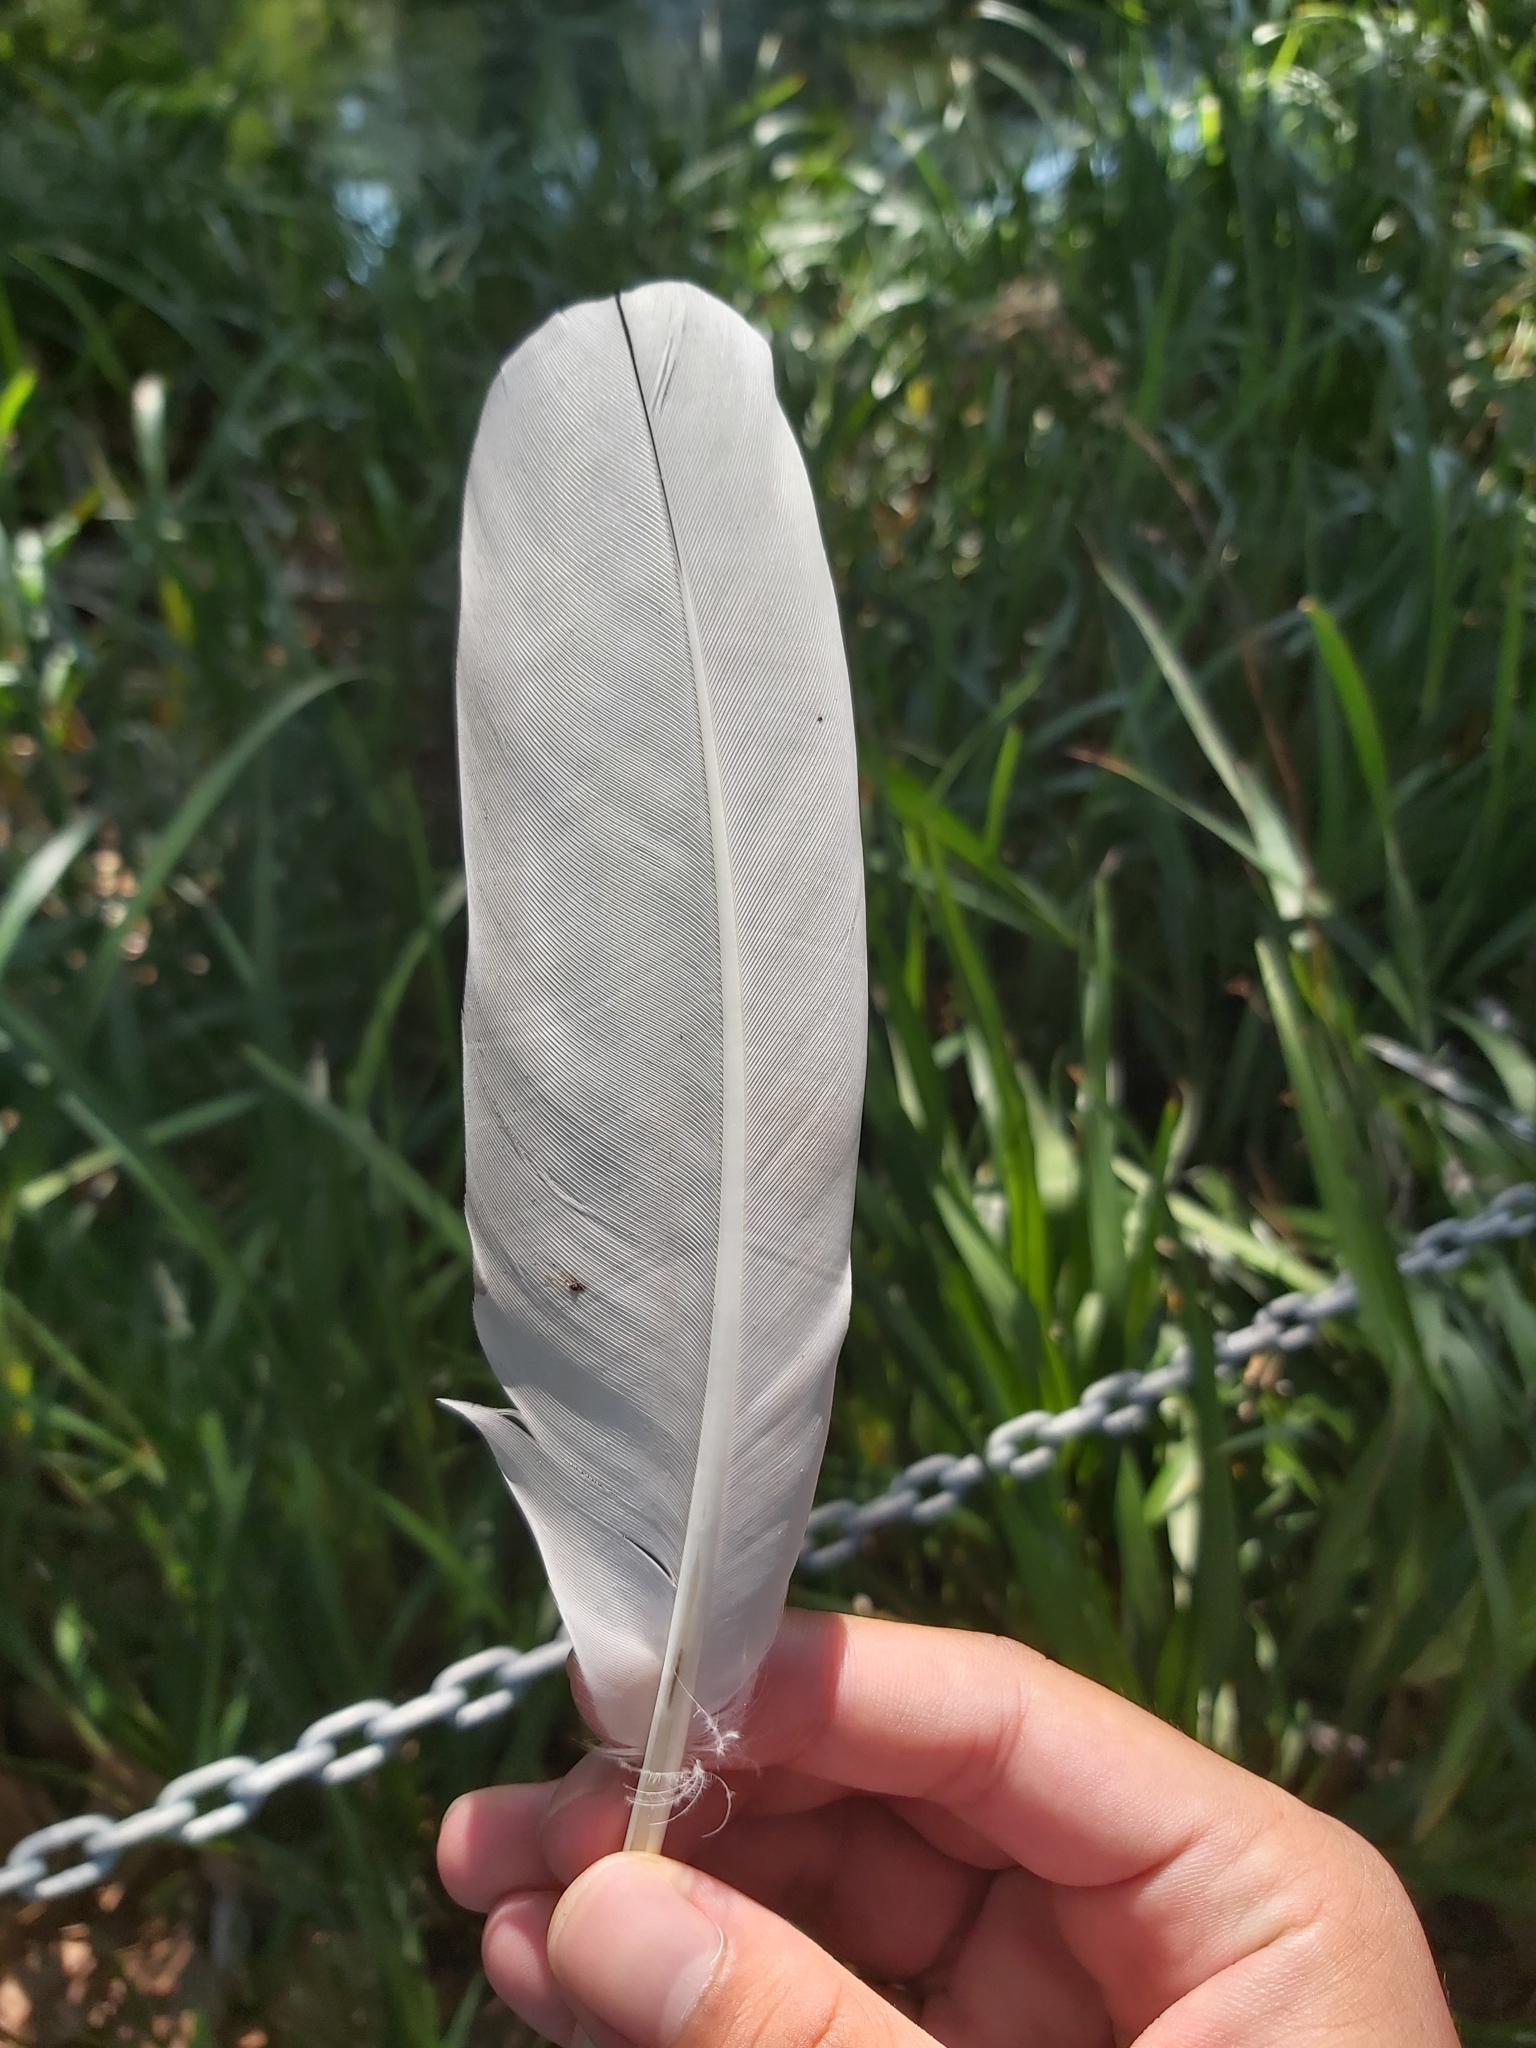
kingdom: Animalia
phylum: Chordata
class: Aves
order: Pelecaniformes
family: Threskiornithidae
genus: Threskiornis
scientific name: Threskiornis molucca
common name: Australian white ibis
